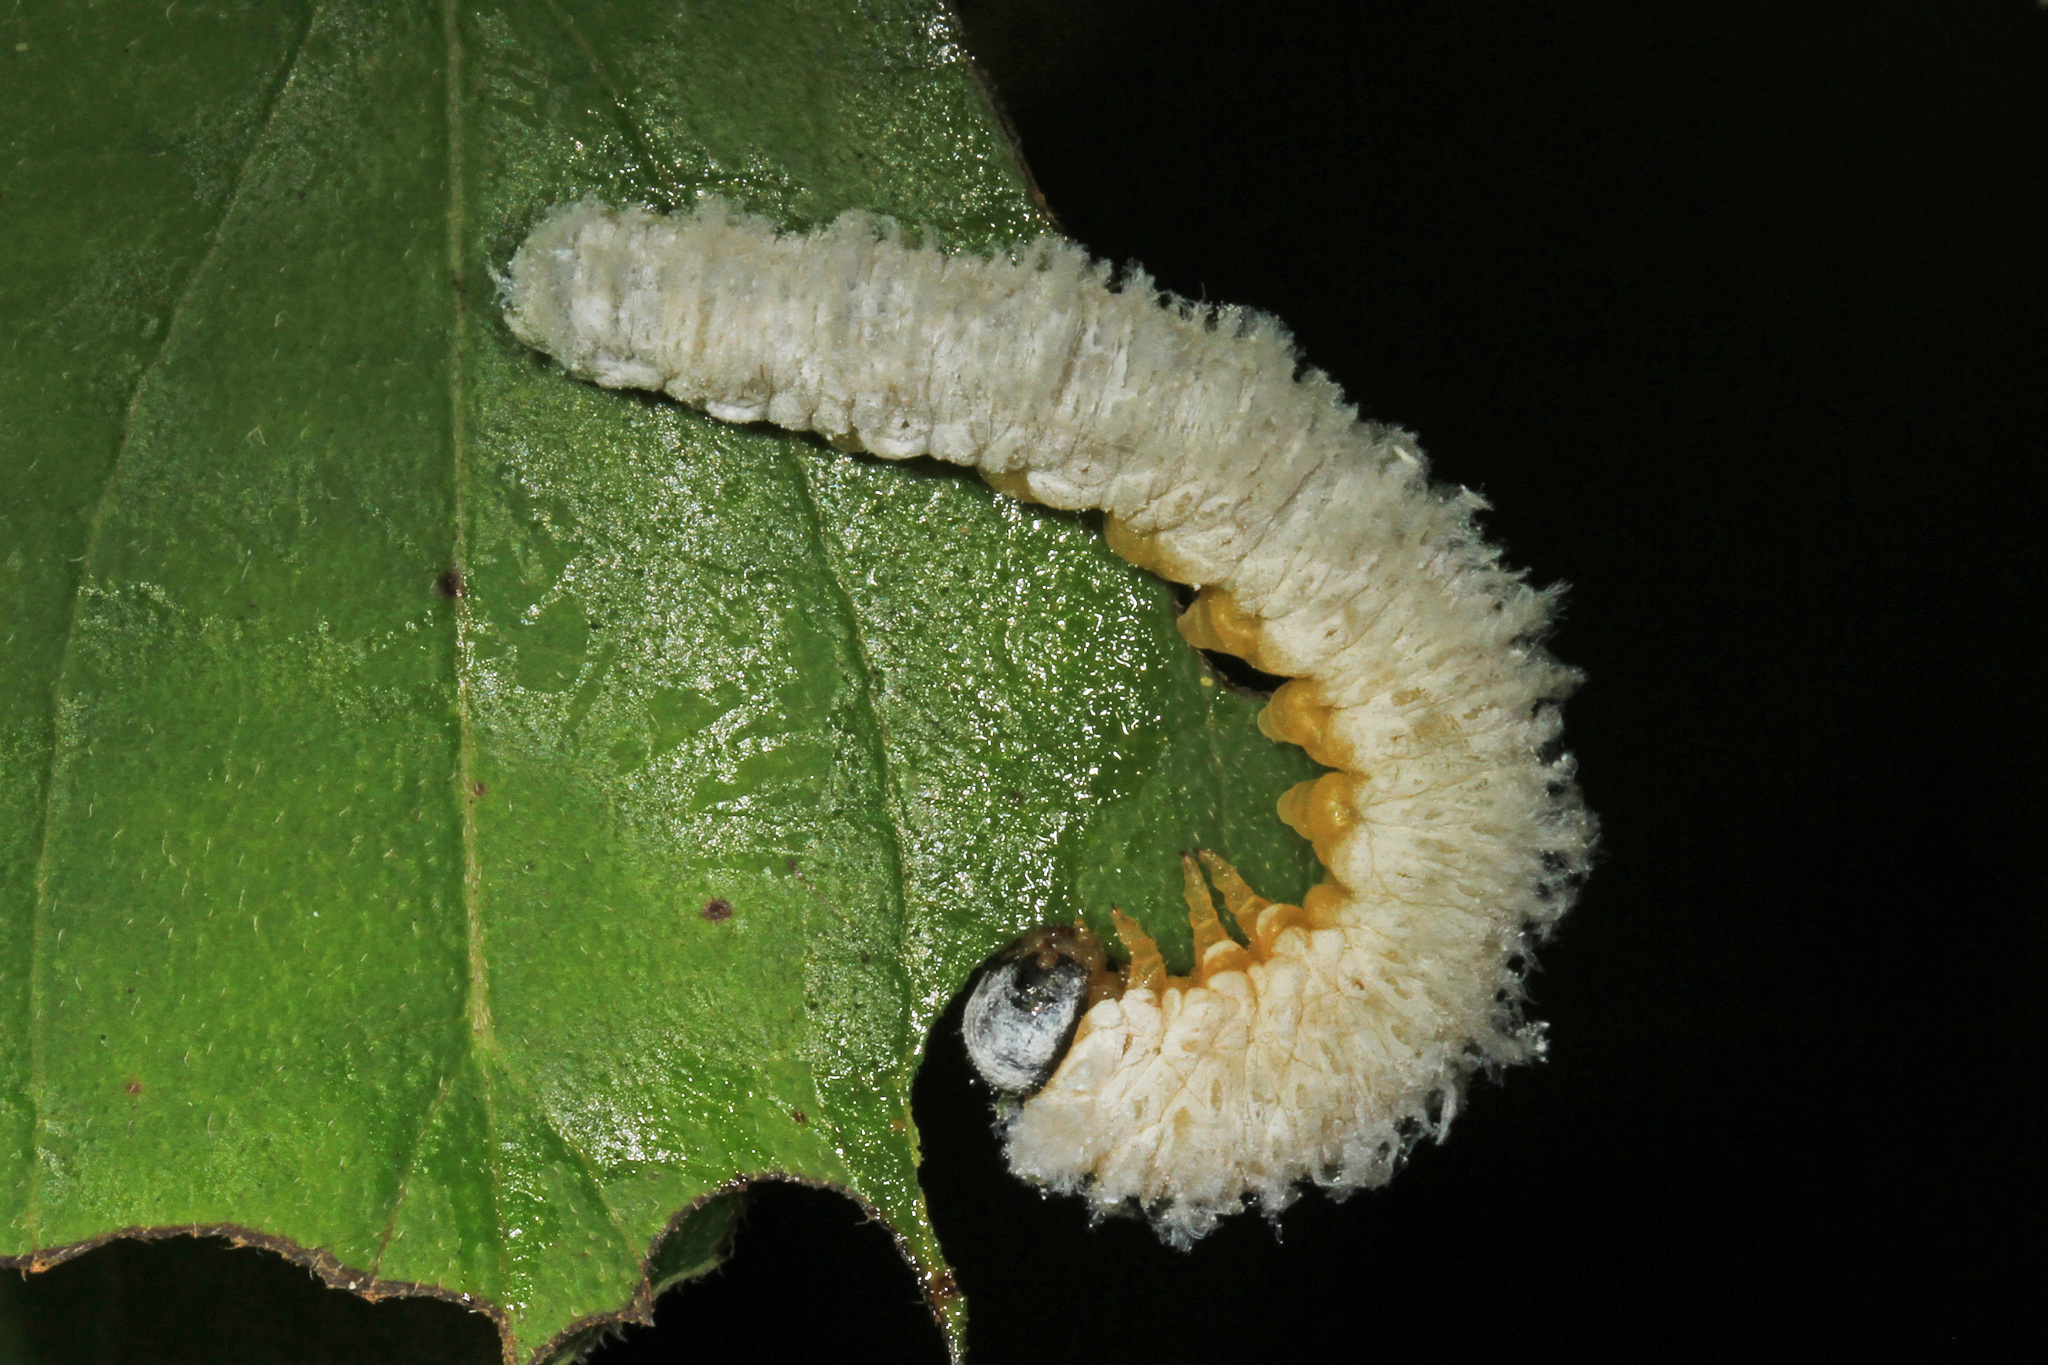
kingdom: Animalia
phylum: Arthropoda
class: Insecta
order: Hymenoptera
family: Tenthredinidae
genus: Macremphytus
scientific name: Macremphytus testaceus
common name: Dogwood sawfly
